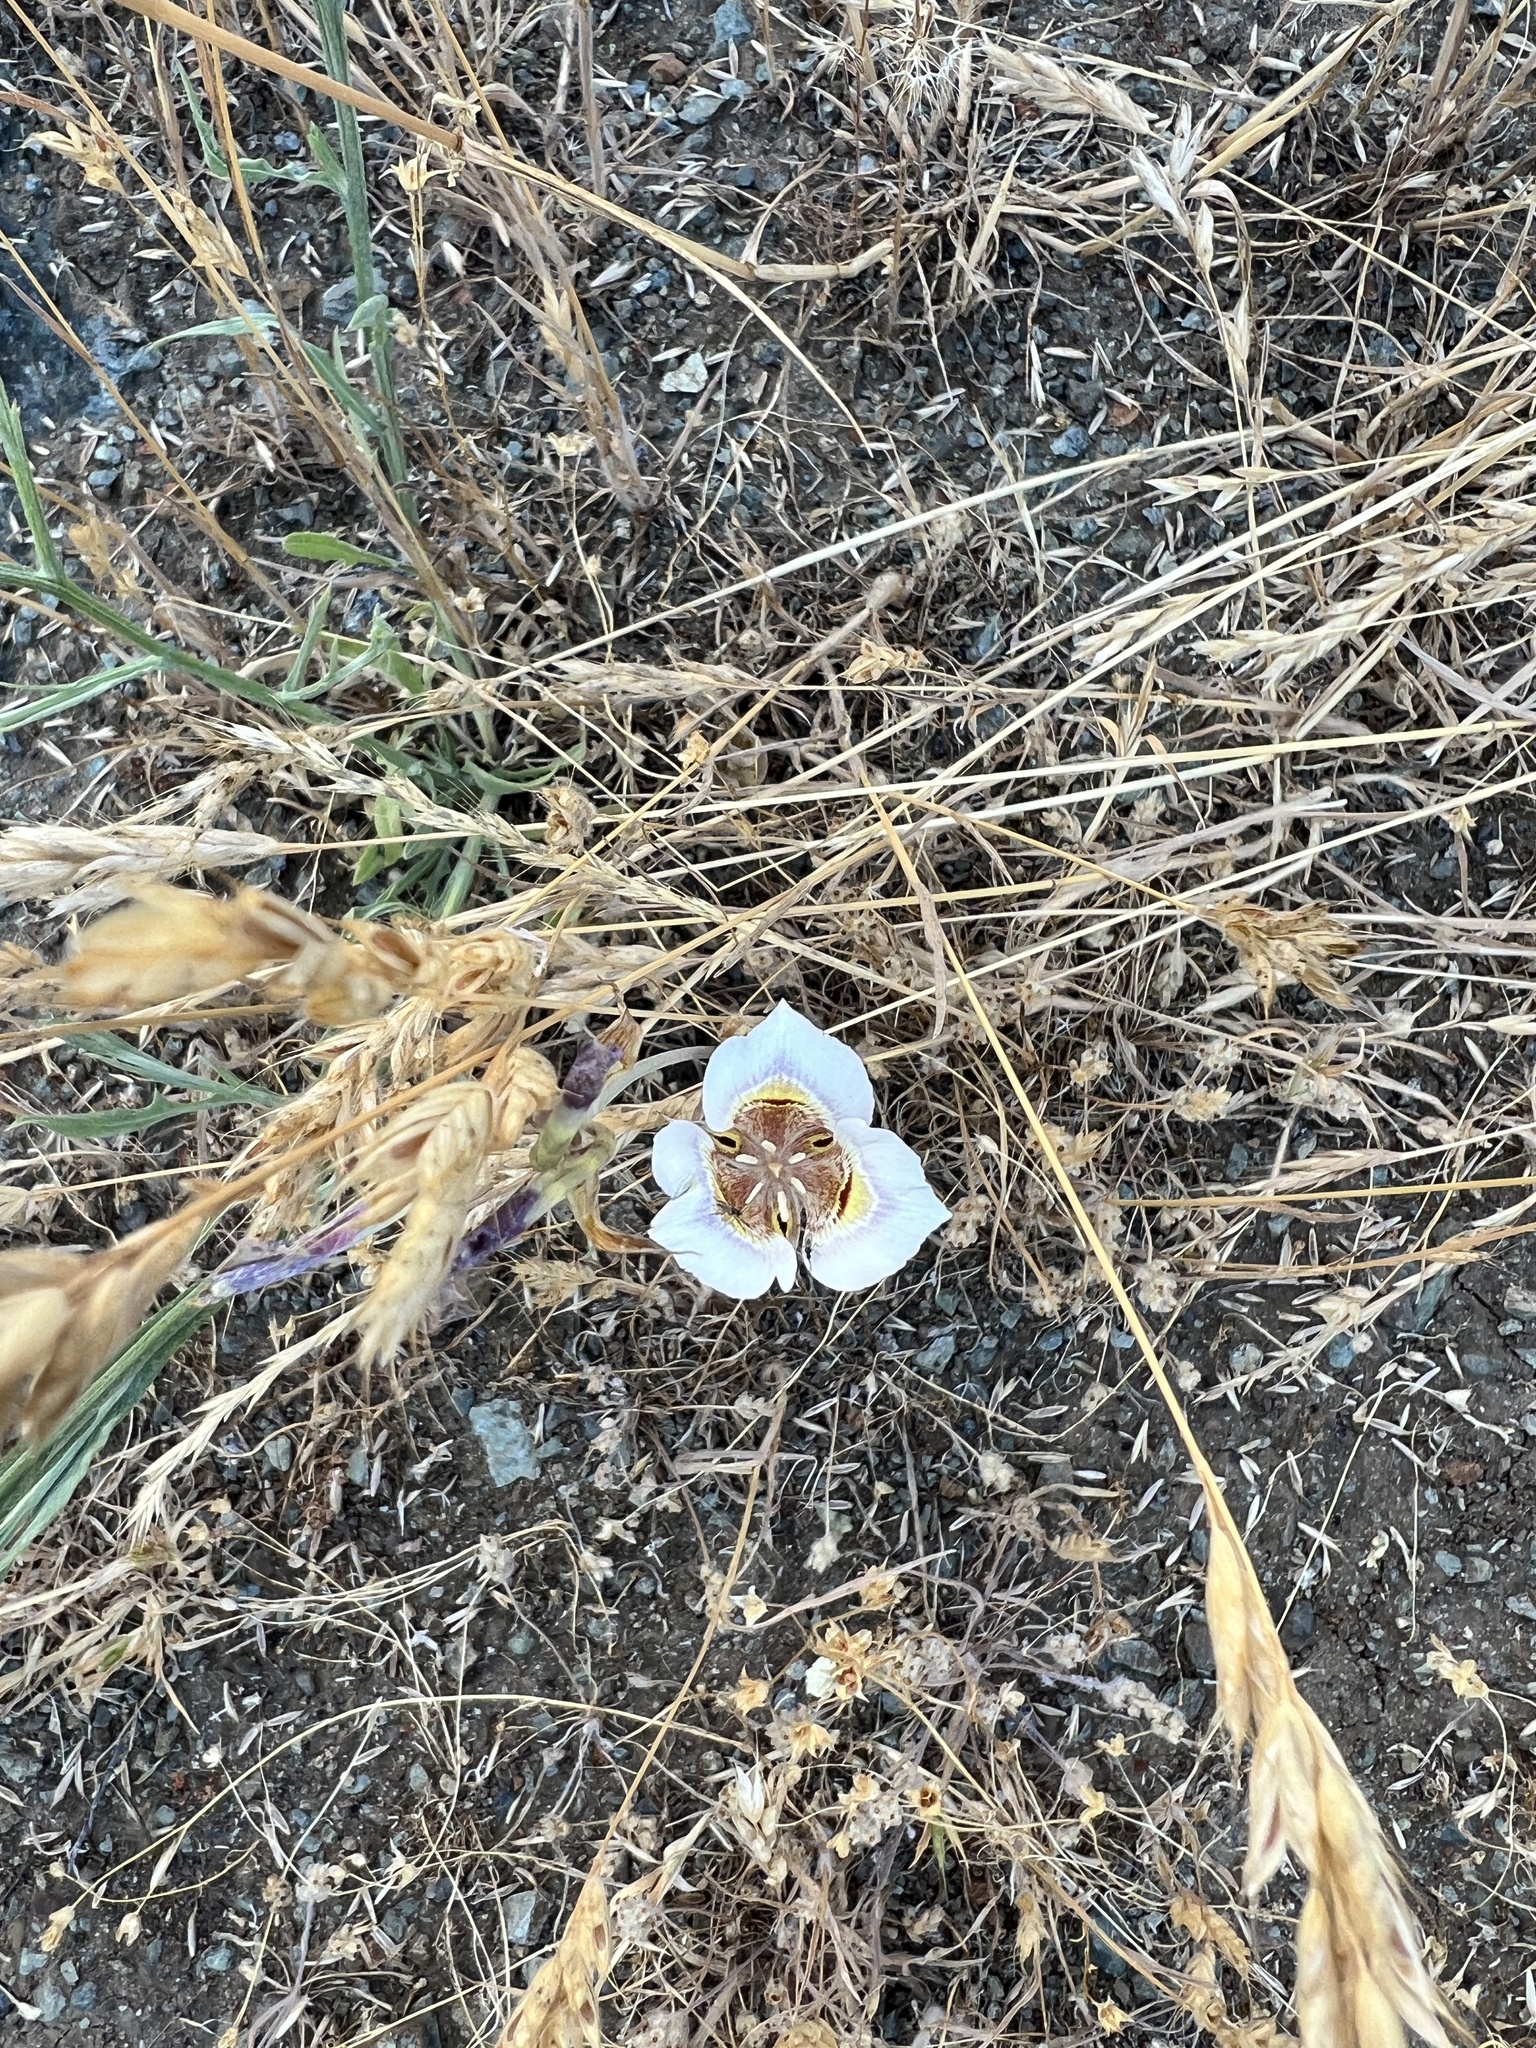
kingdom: Plantae
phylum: Tracheophyta
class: Liliopsida
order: Liliales
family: Liliaceae
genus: Calochortus
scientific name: Calochortus argillosus
